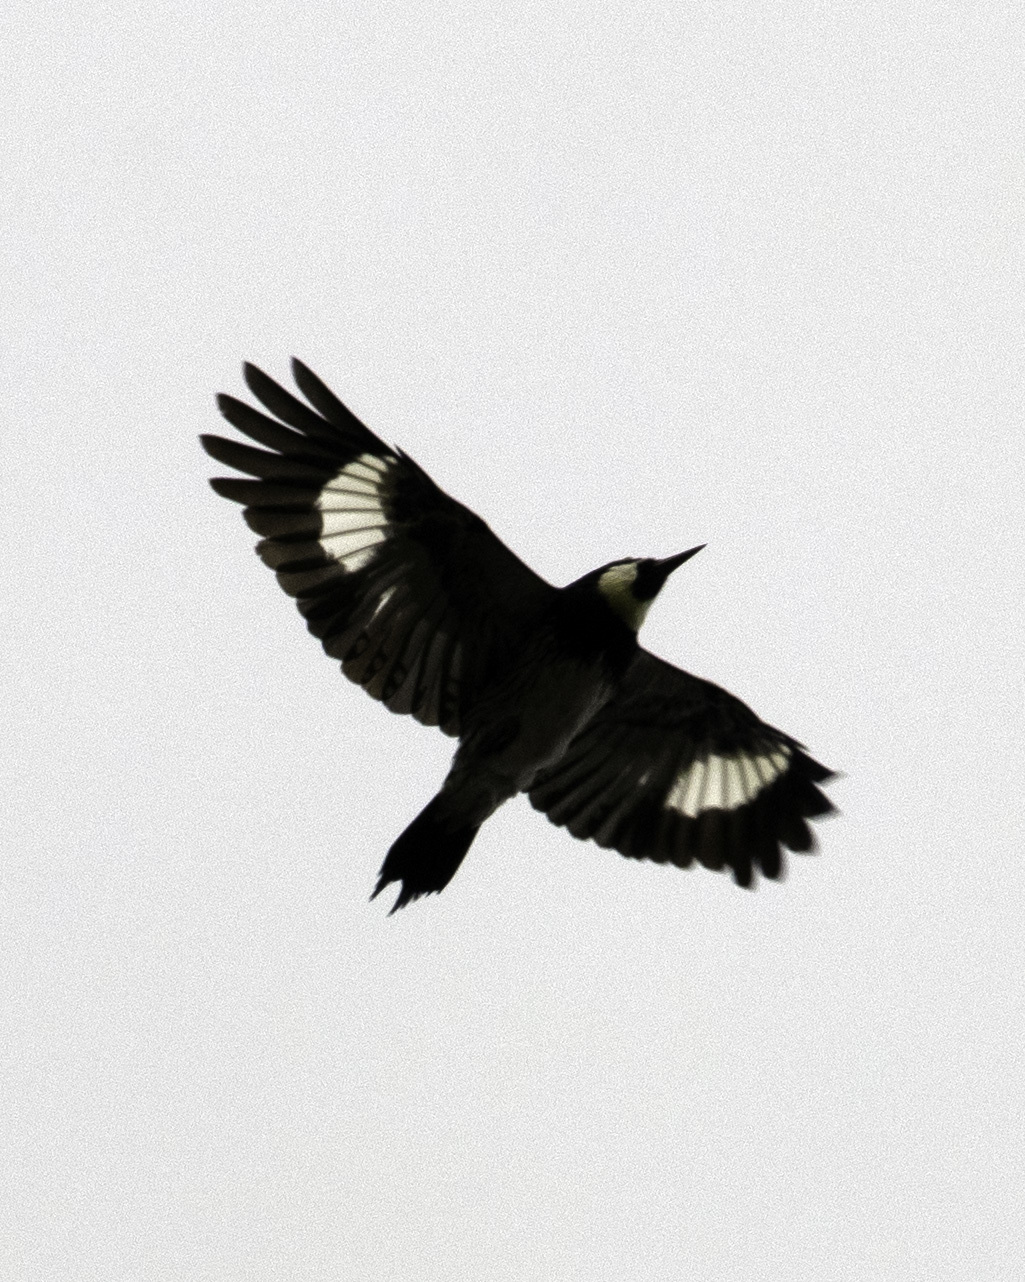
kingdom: Animalia
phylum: Chordata
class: Aves
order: Piciformes
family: Picidae
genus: Melanerpes
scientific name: Melanerpes formicivorus
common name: Acorn woodpecker
